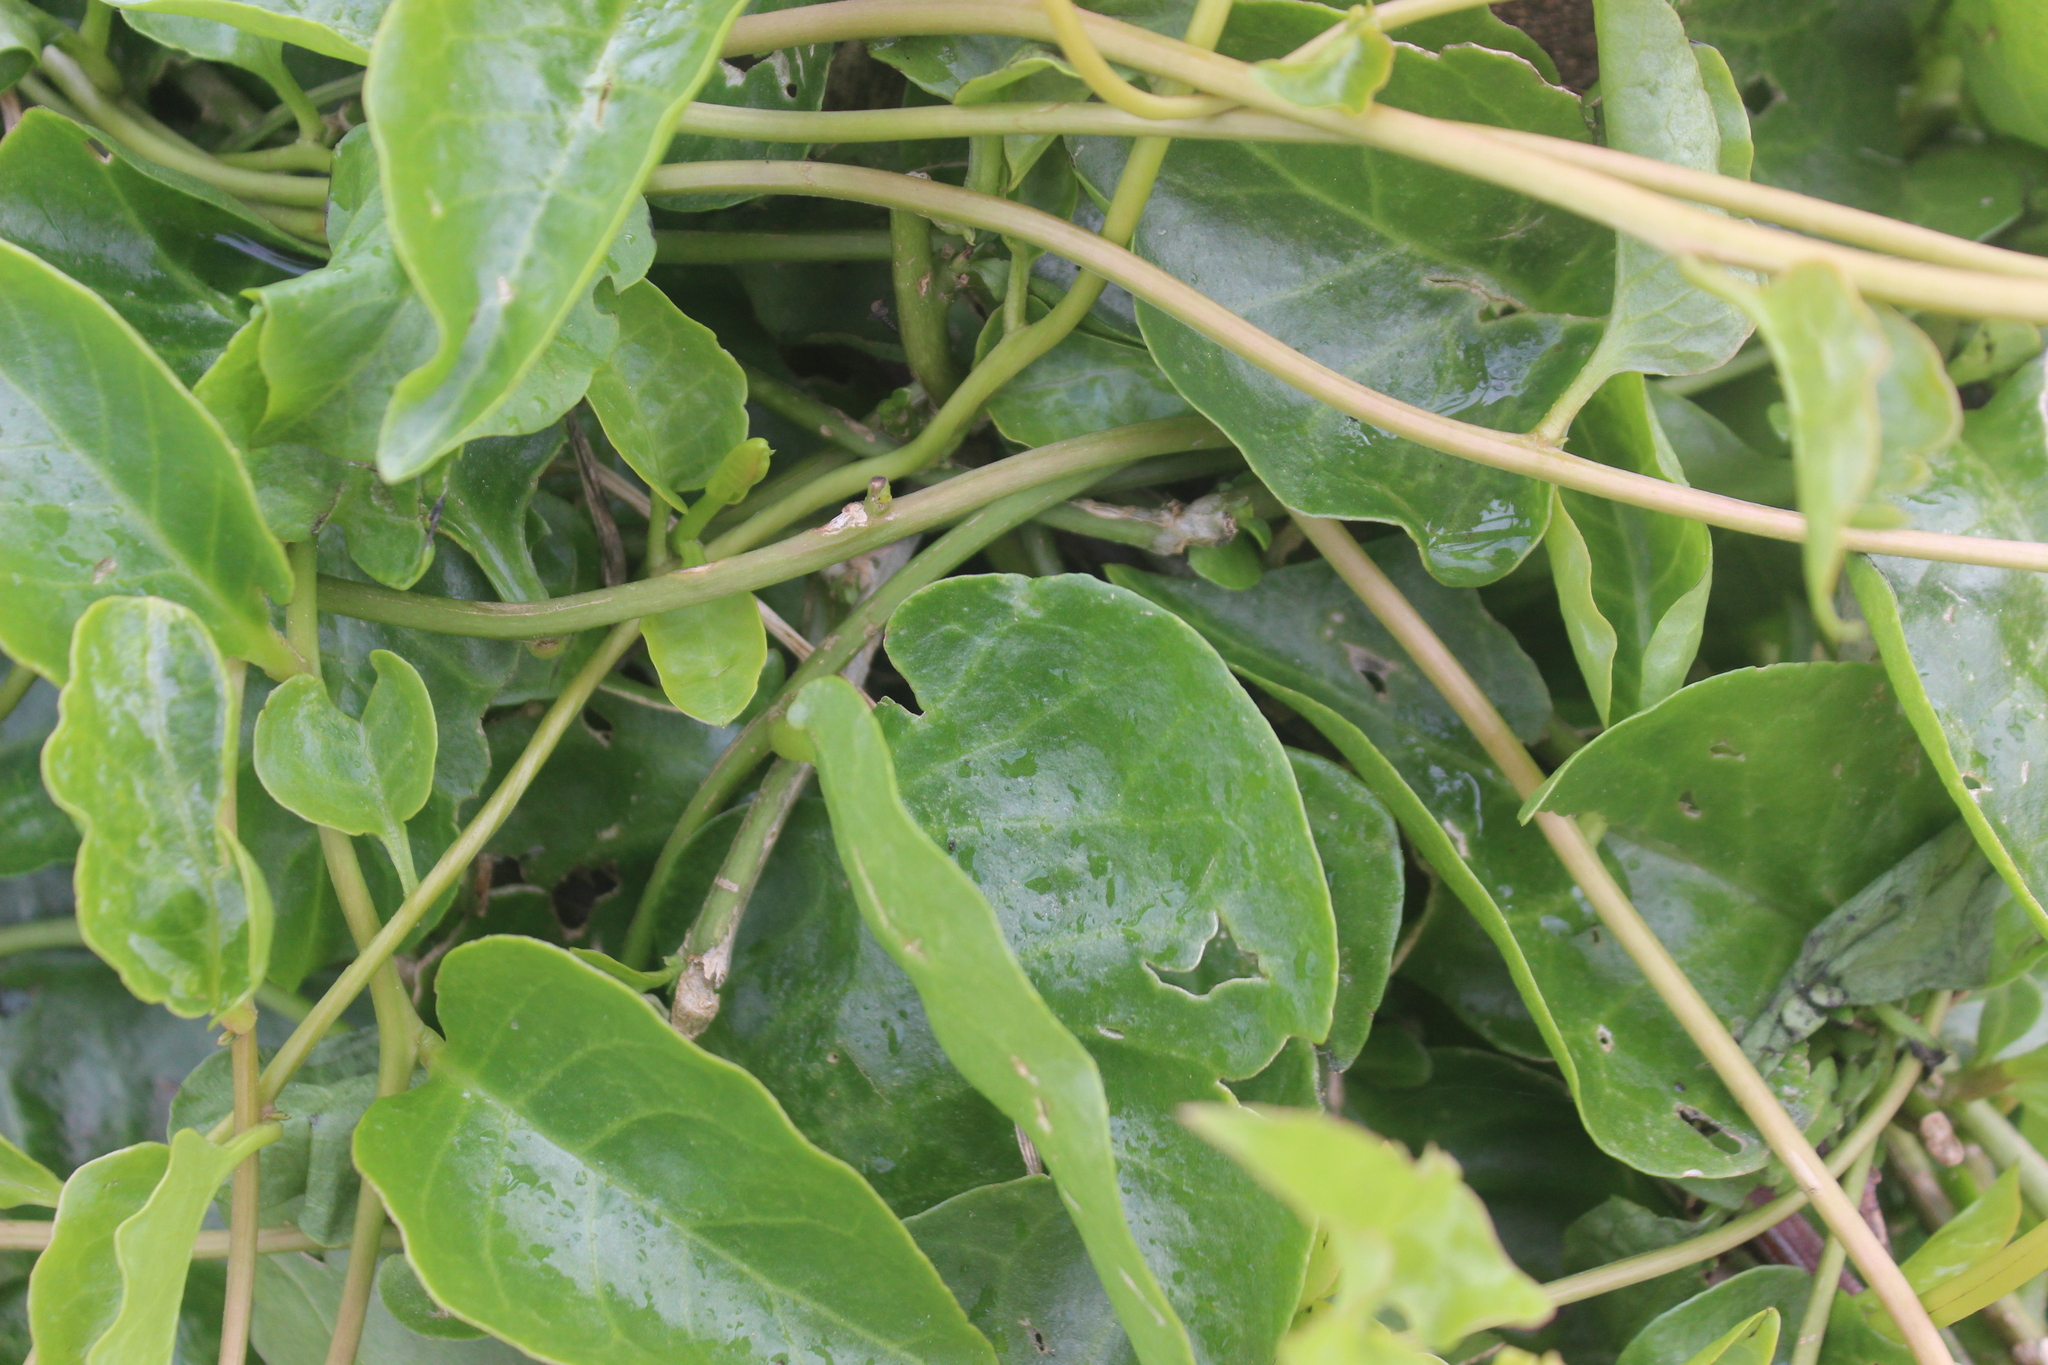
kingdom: Plantae
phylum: Tracheophyta
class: Magnoliopsida
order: Caryophyllales
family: Basellaceae
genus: Anredera
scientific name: Anredera cordifolia
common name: Heartleaf madeiravine
